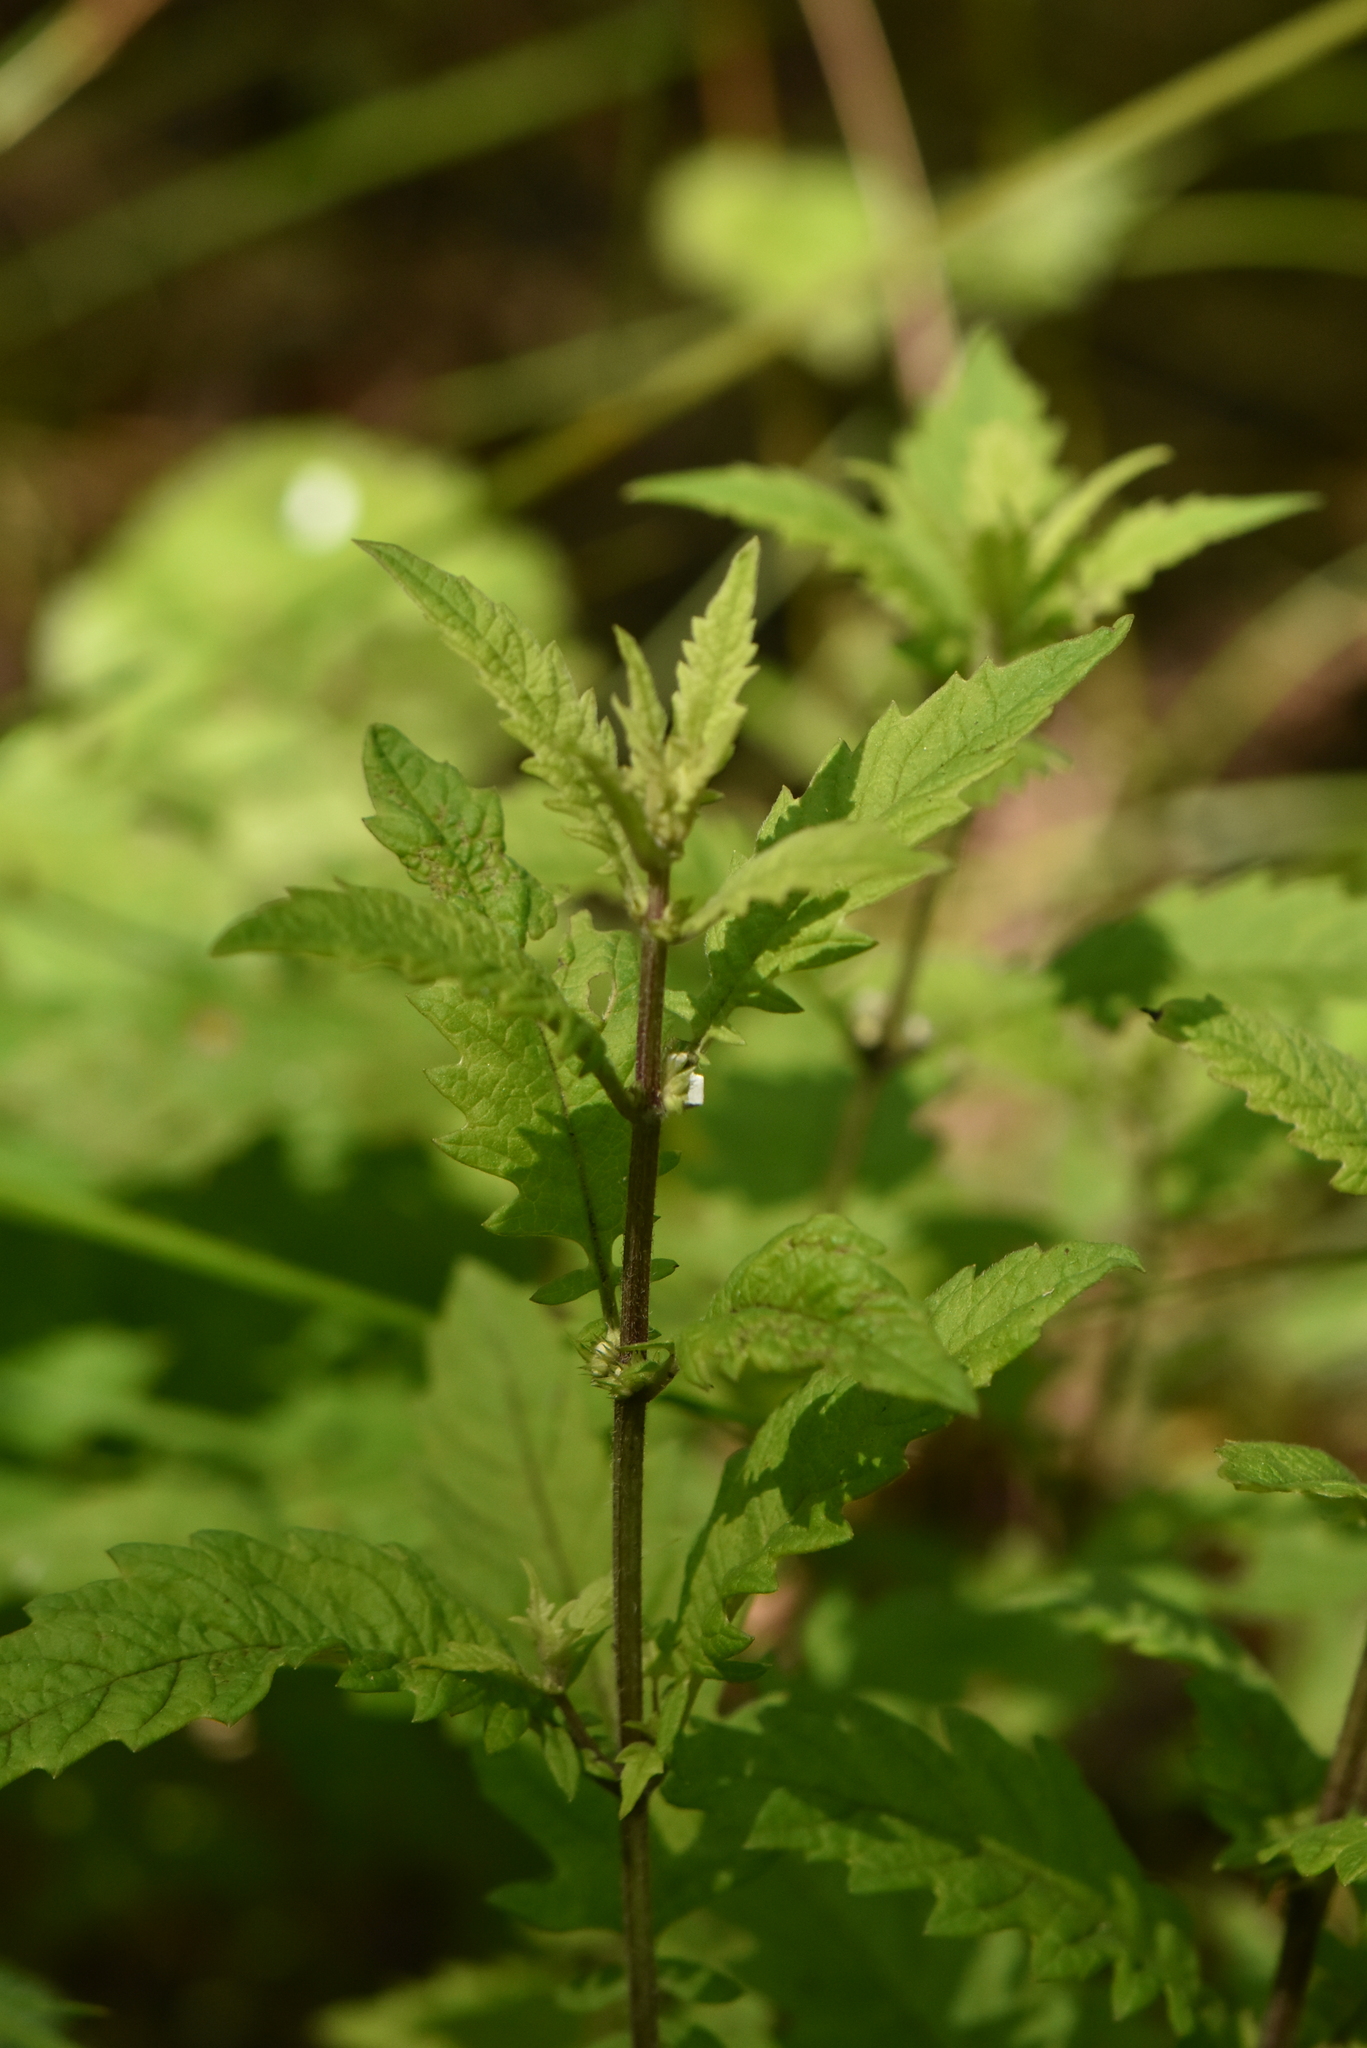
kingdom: Plantae
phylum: Tracheophyta
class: Magnoliopsida
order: Lamiales
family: Lamiaceae
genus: Lycopus
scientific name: Lycopus europaeus
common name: European bugleweed
